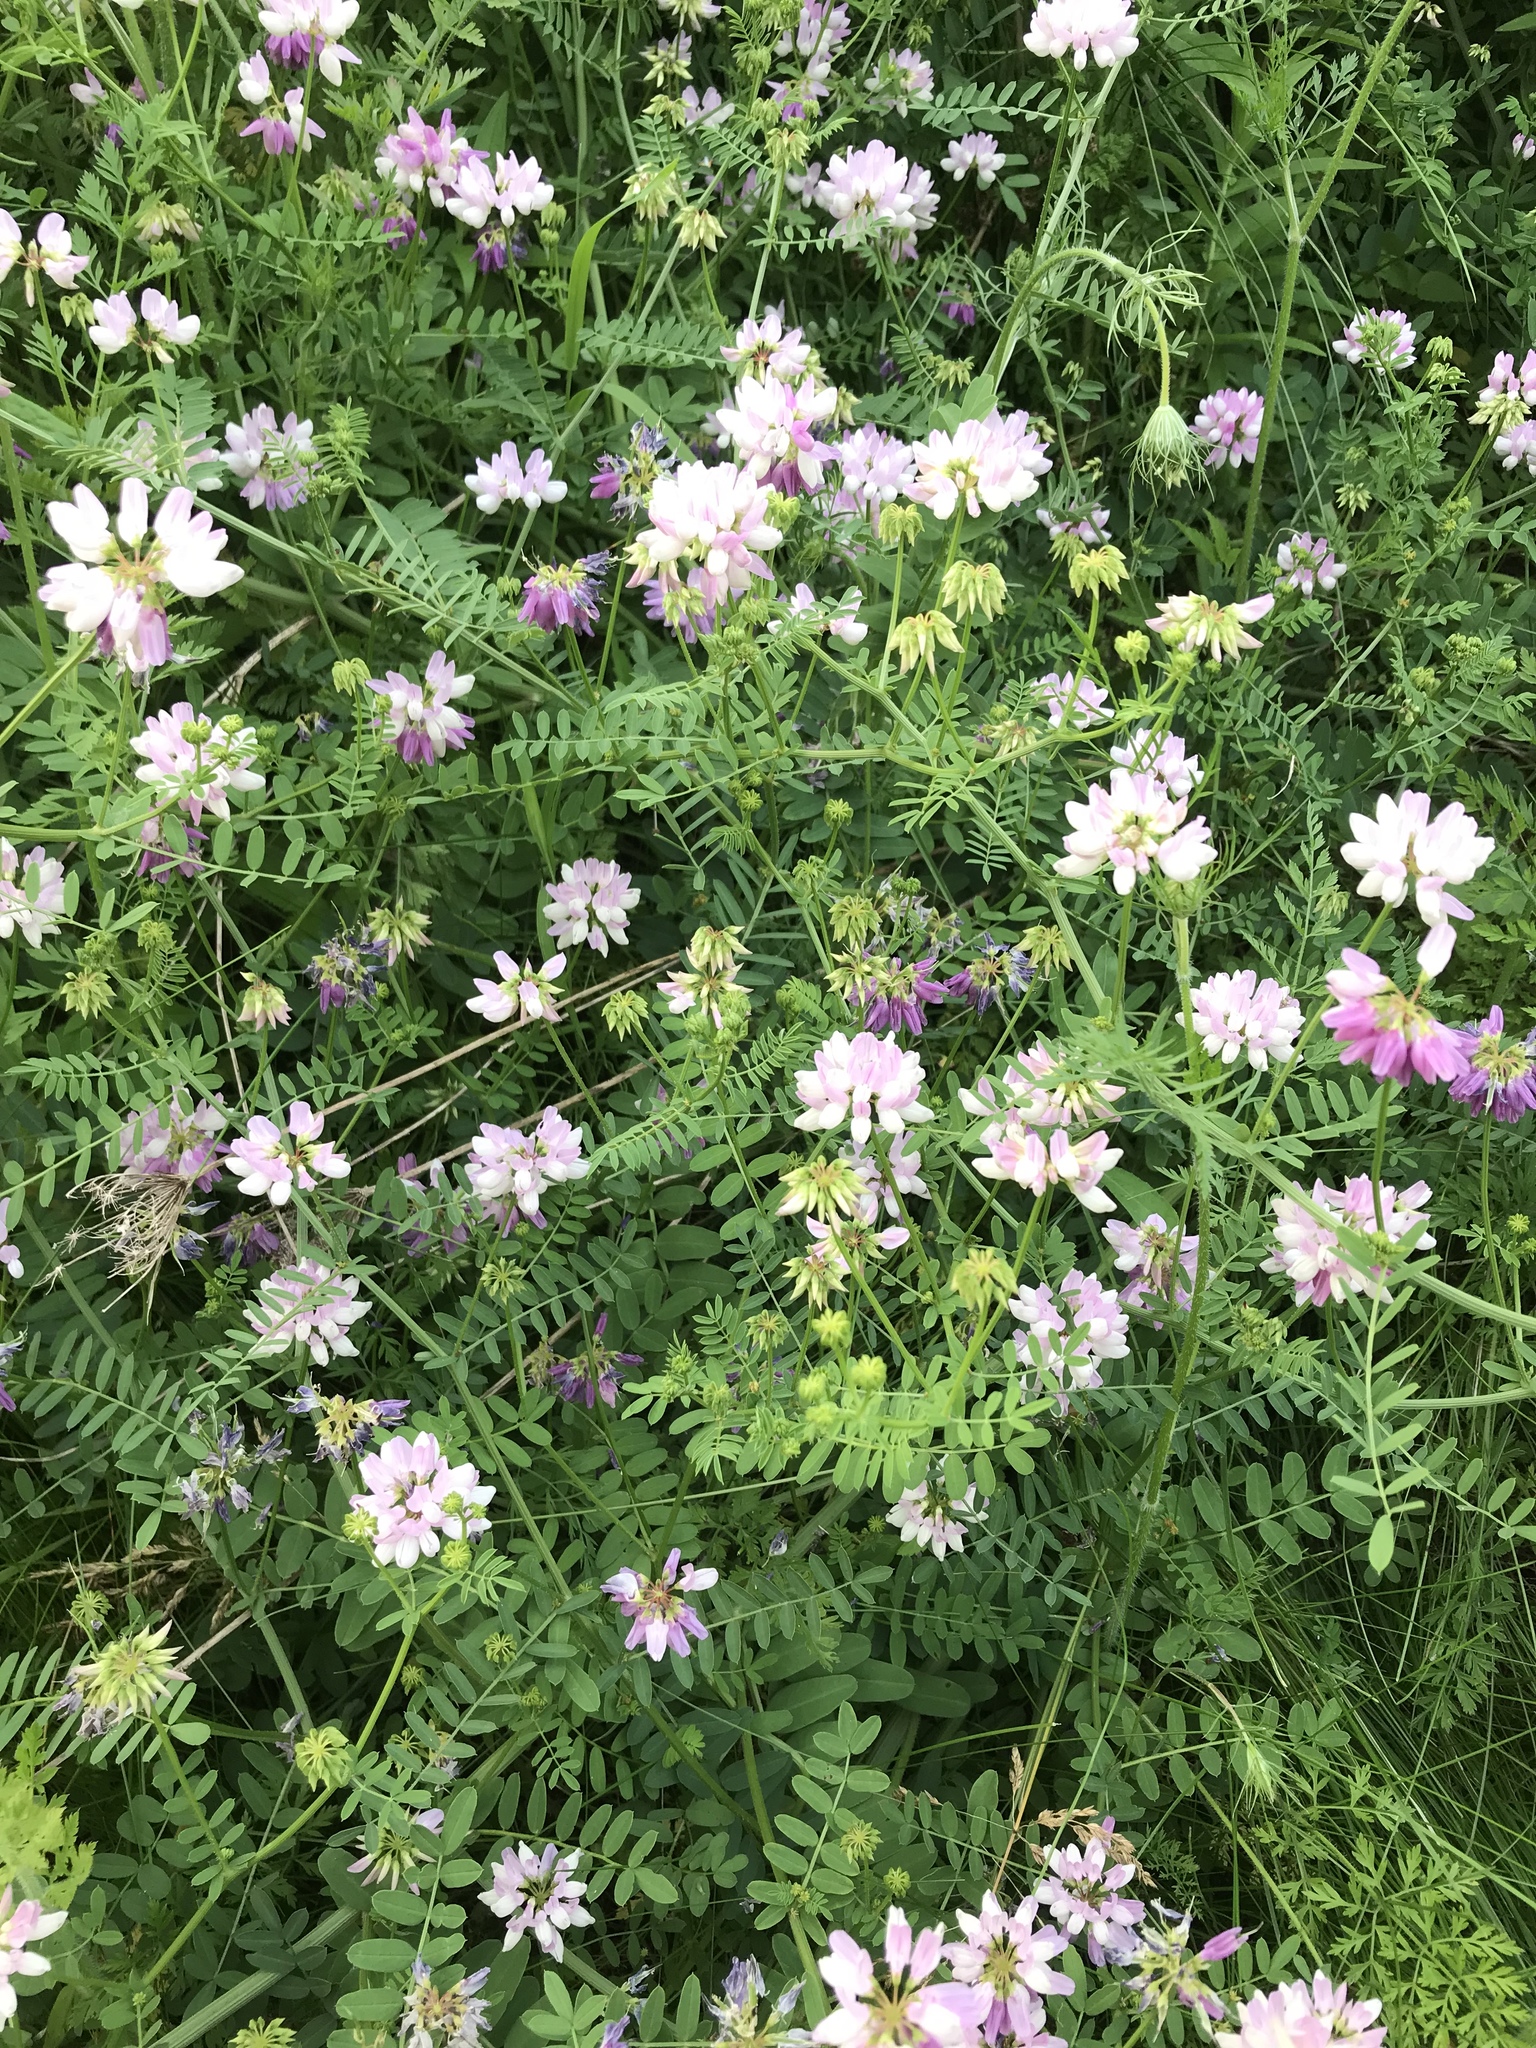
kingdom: Plantae
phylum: Tracheophyta
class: Magnoliopsida
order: Fabales
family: Fabaceae
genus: Coronilla
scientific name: Coronilla varia
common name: Crownvetch
